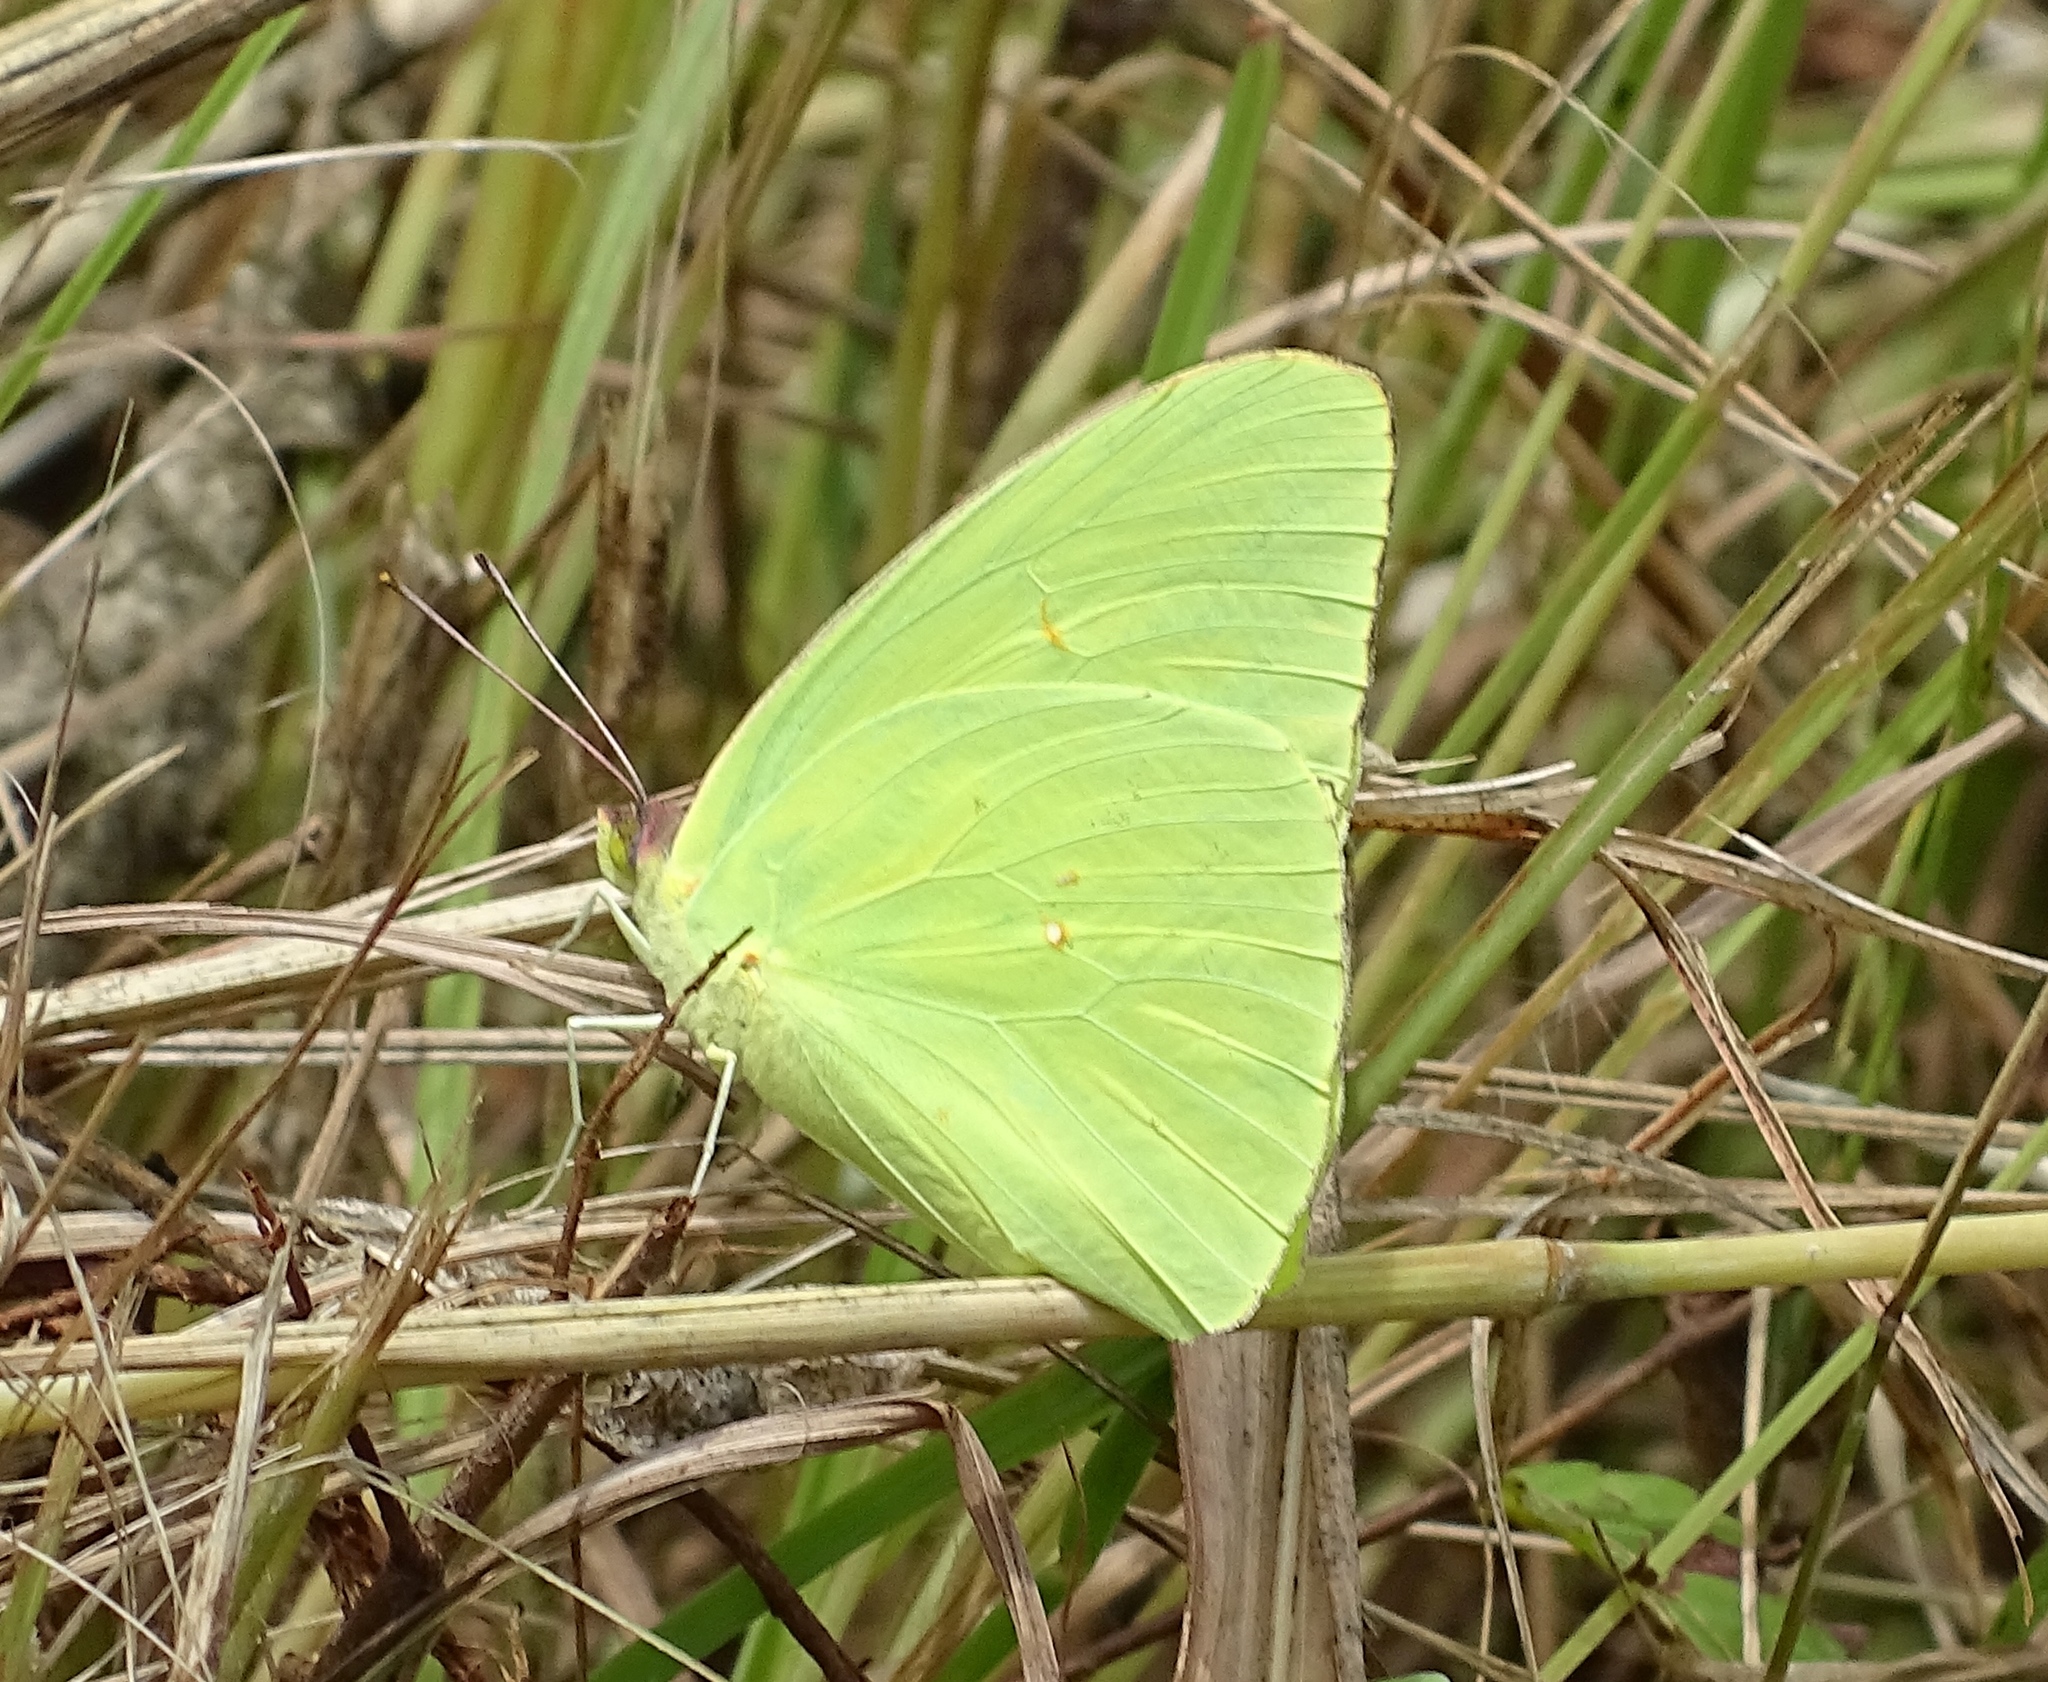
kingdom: Animalia
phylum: Arthropoda
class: Insecta
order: Lepidoptera
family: Pieridae
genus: Phoebis
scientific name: Phoebis sennae
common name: Cloudless sulphur
